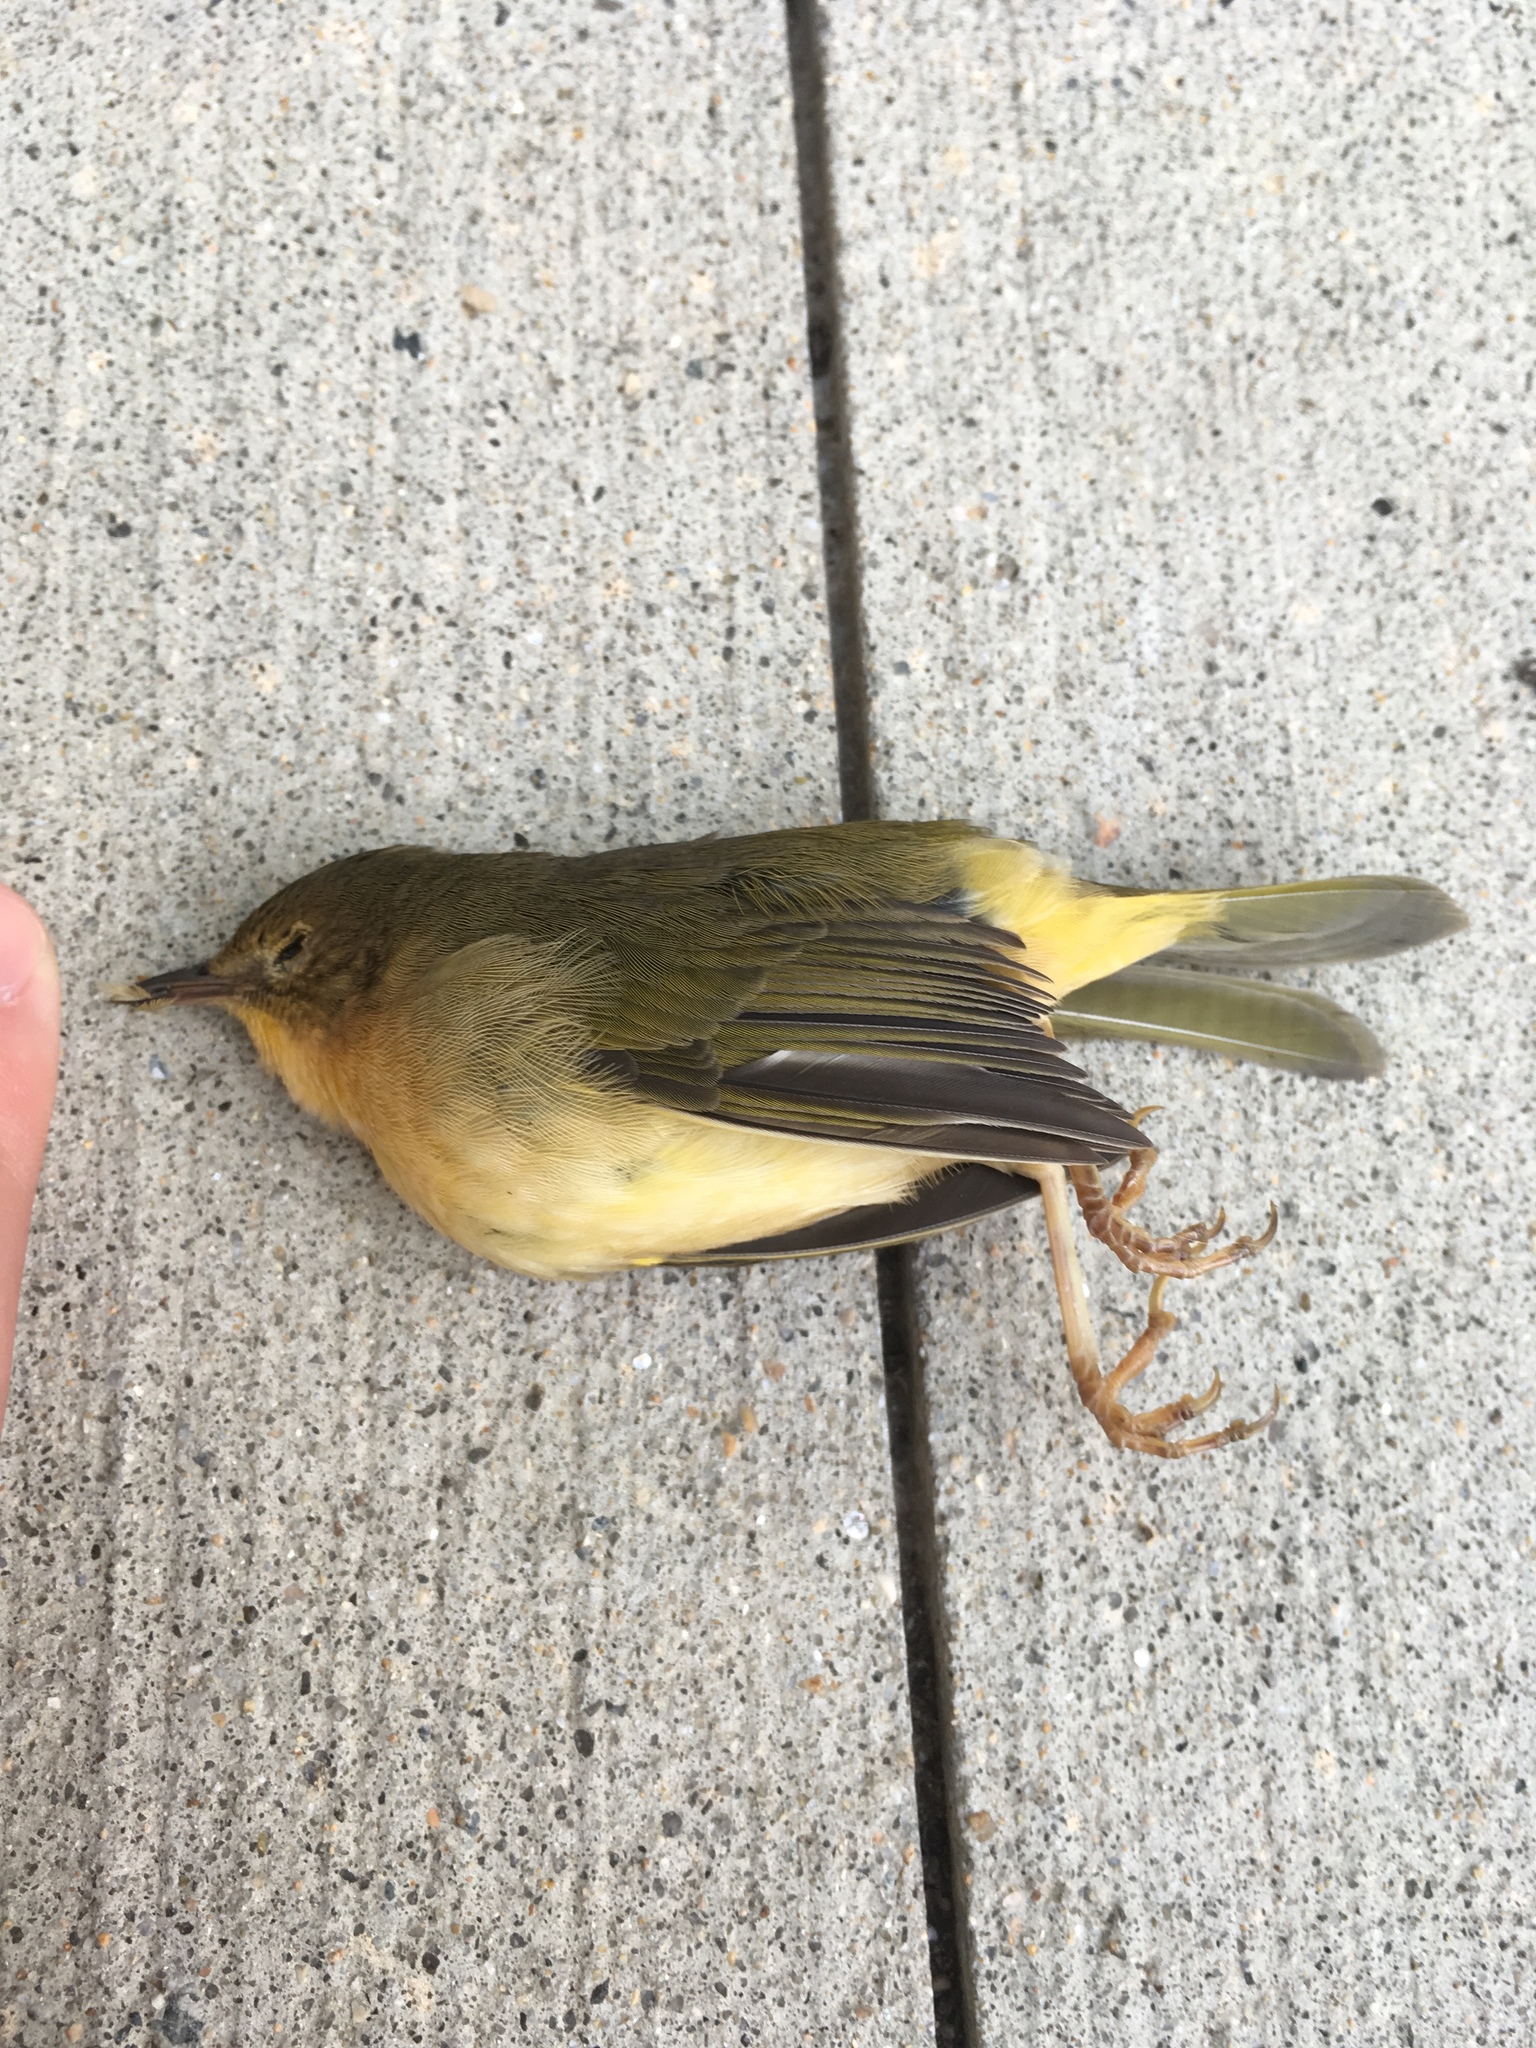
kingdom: Animalia
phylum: Chordata
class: Aves
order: Passeriformes
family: Parulidae
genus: Geothlypis
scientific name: Geothlypis trichas
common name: Common yellowthroat
